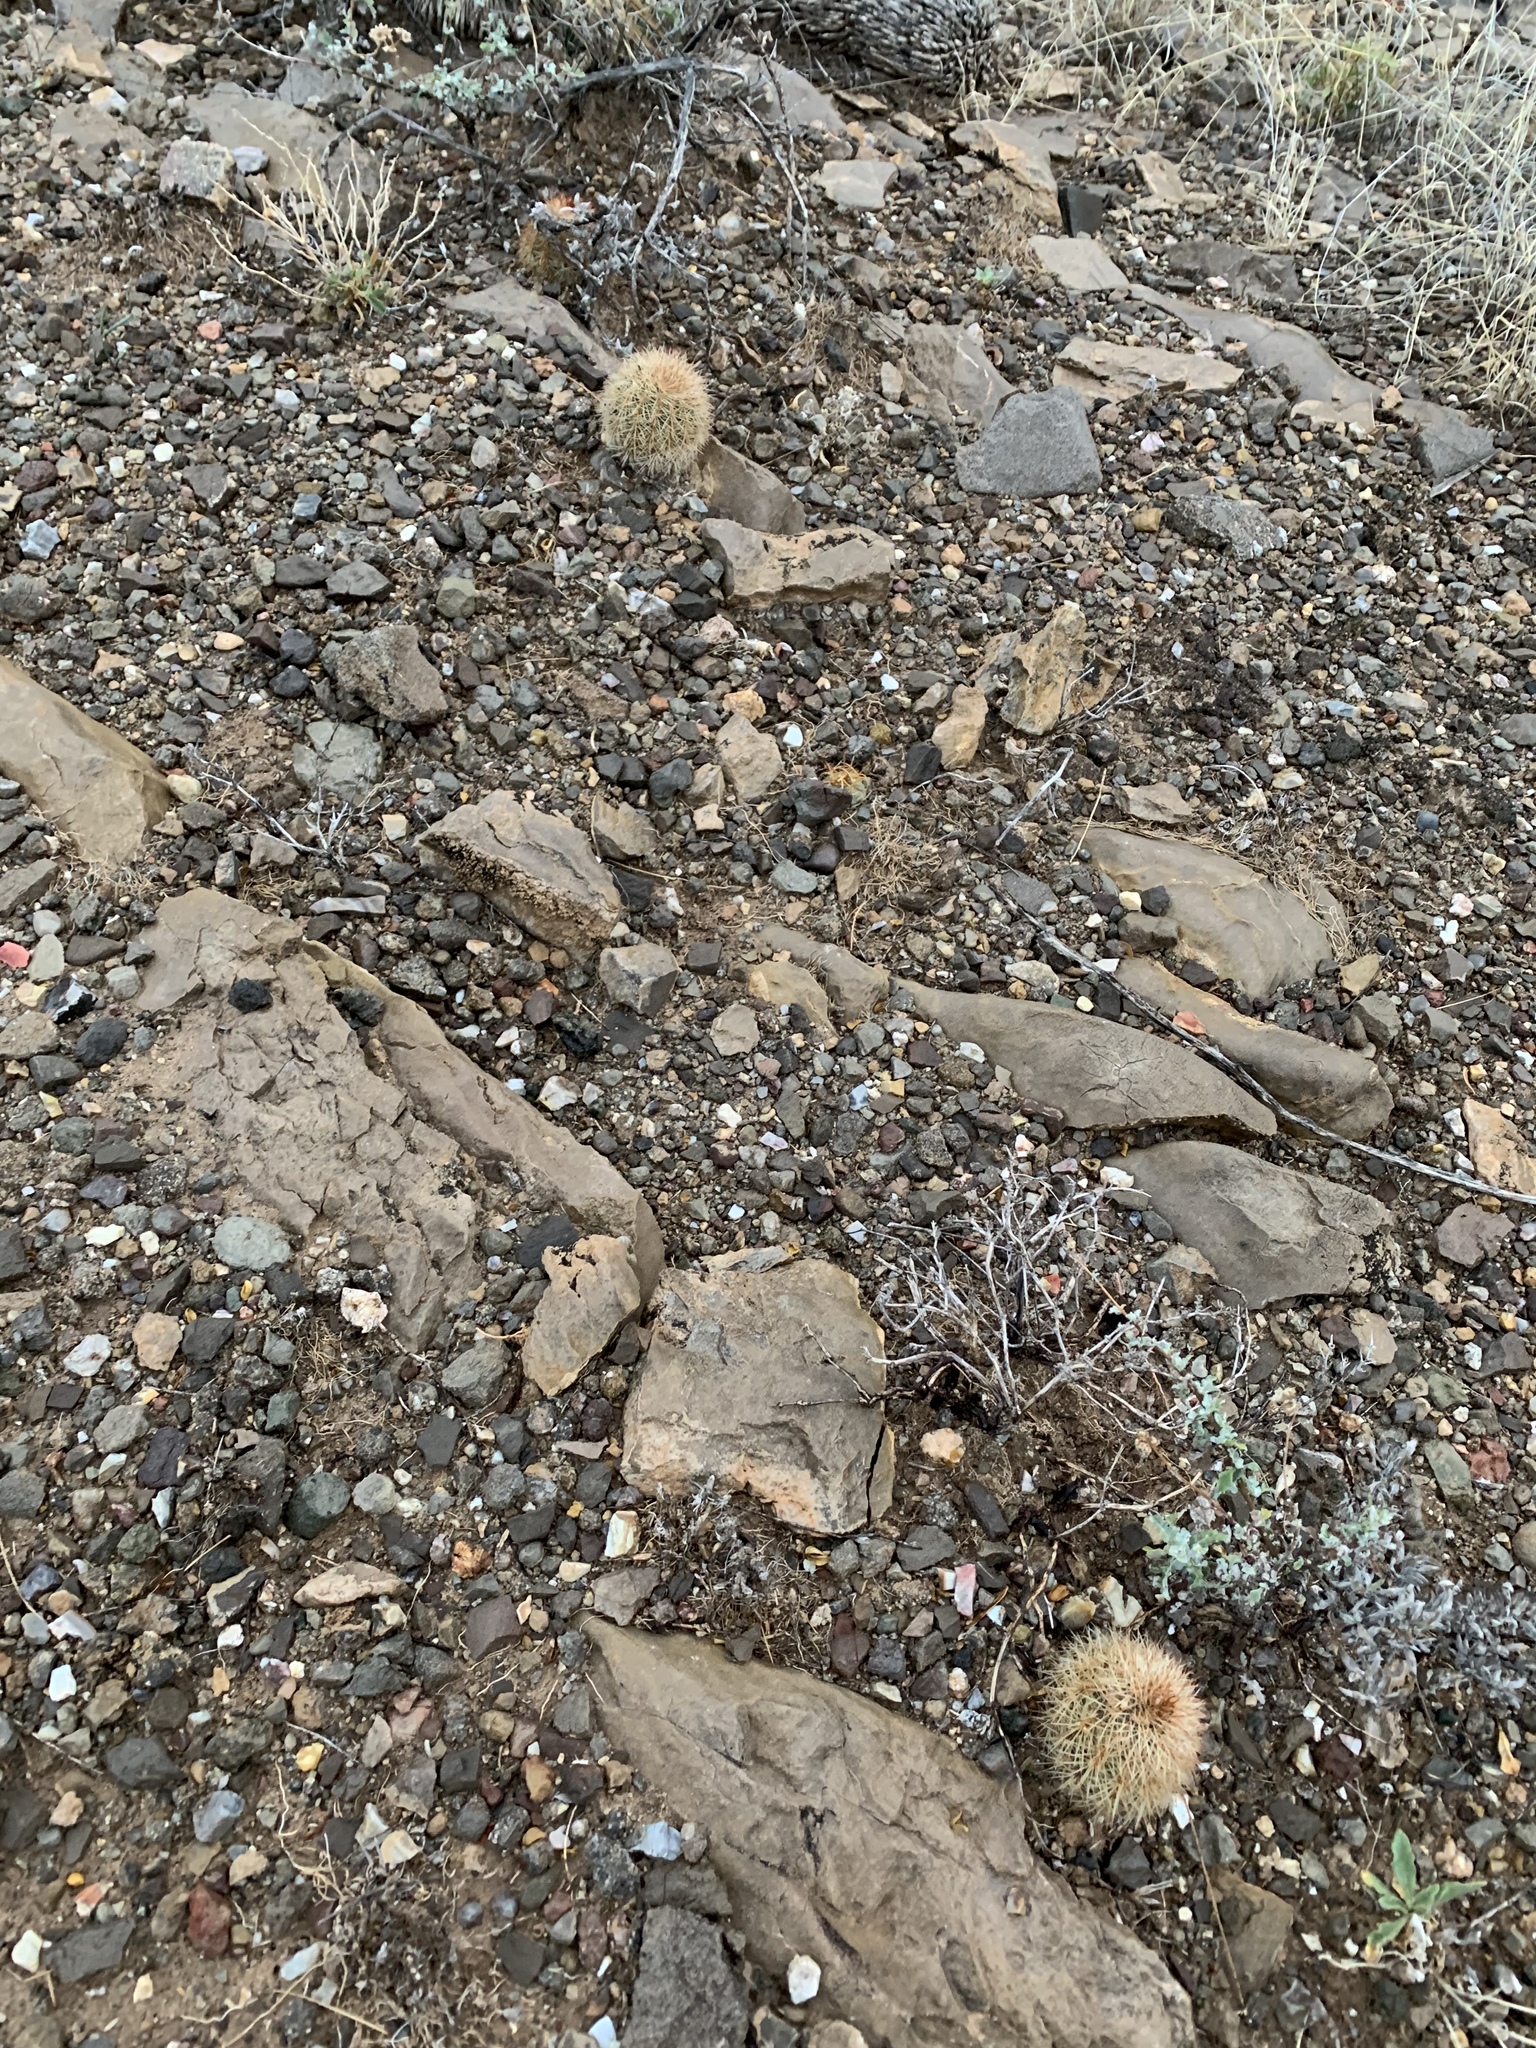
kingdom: Plantae
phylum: Tracheophyta
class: Magnoliopsida
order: Caryophyllales
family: Cactaceae
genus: Echinocereus
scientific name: Echinocereus dasyacanthus
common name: Spiny hedgehog cactus
